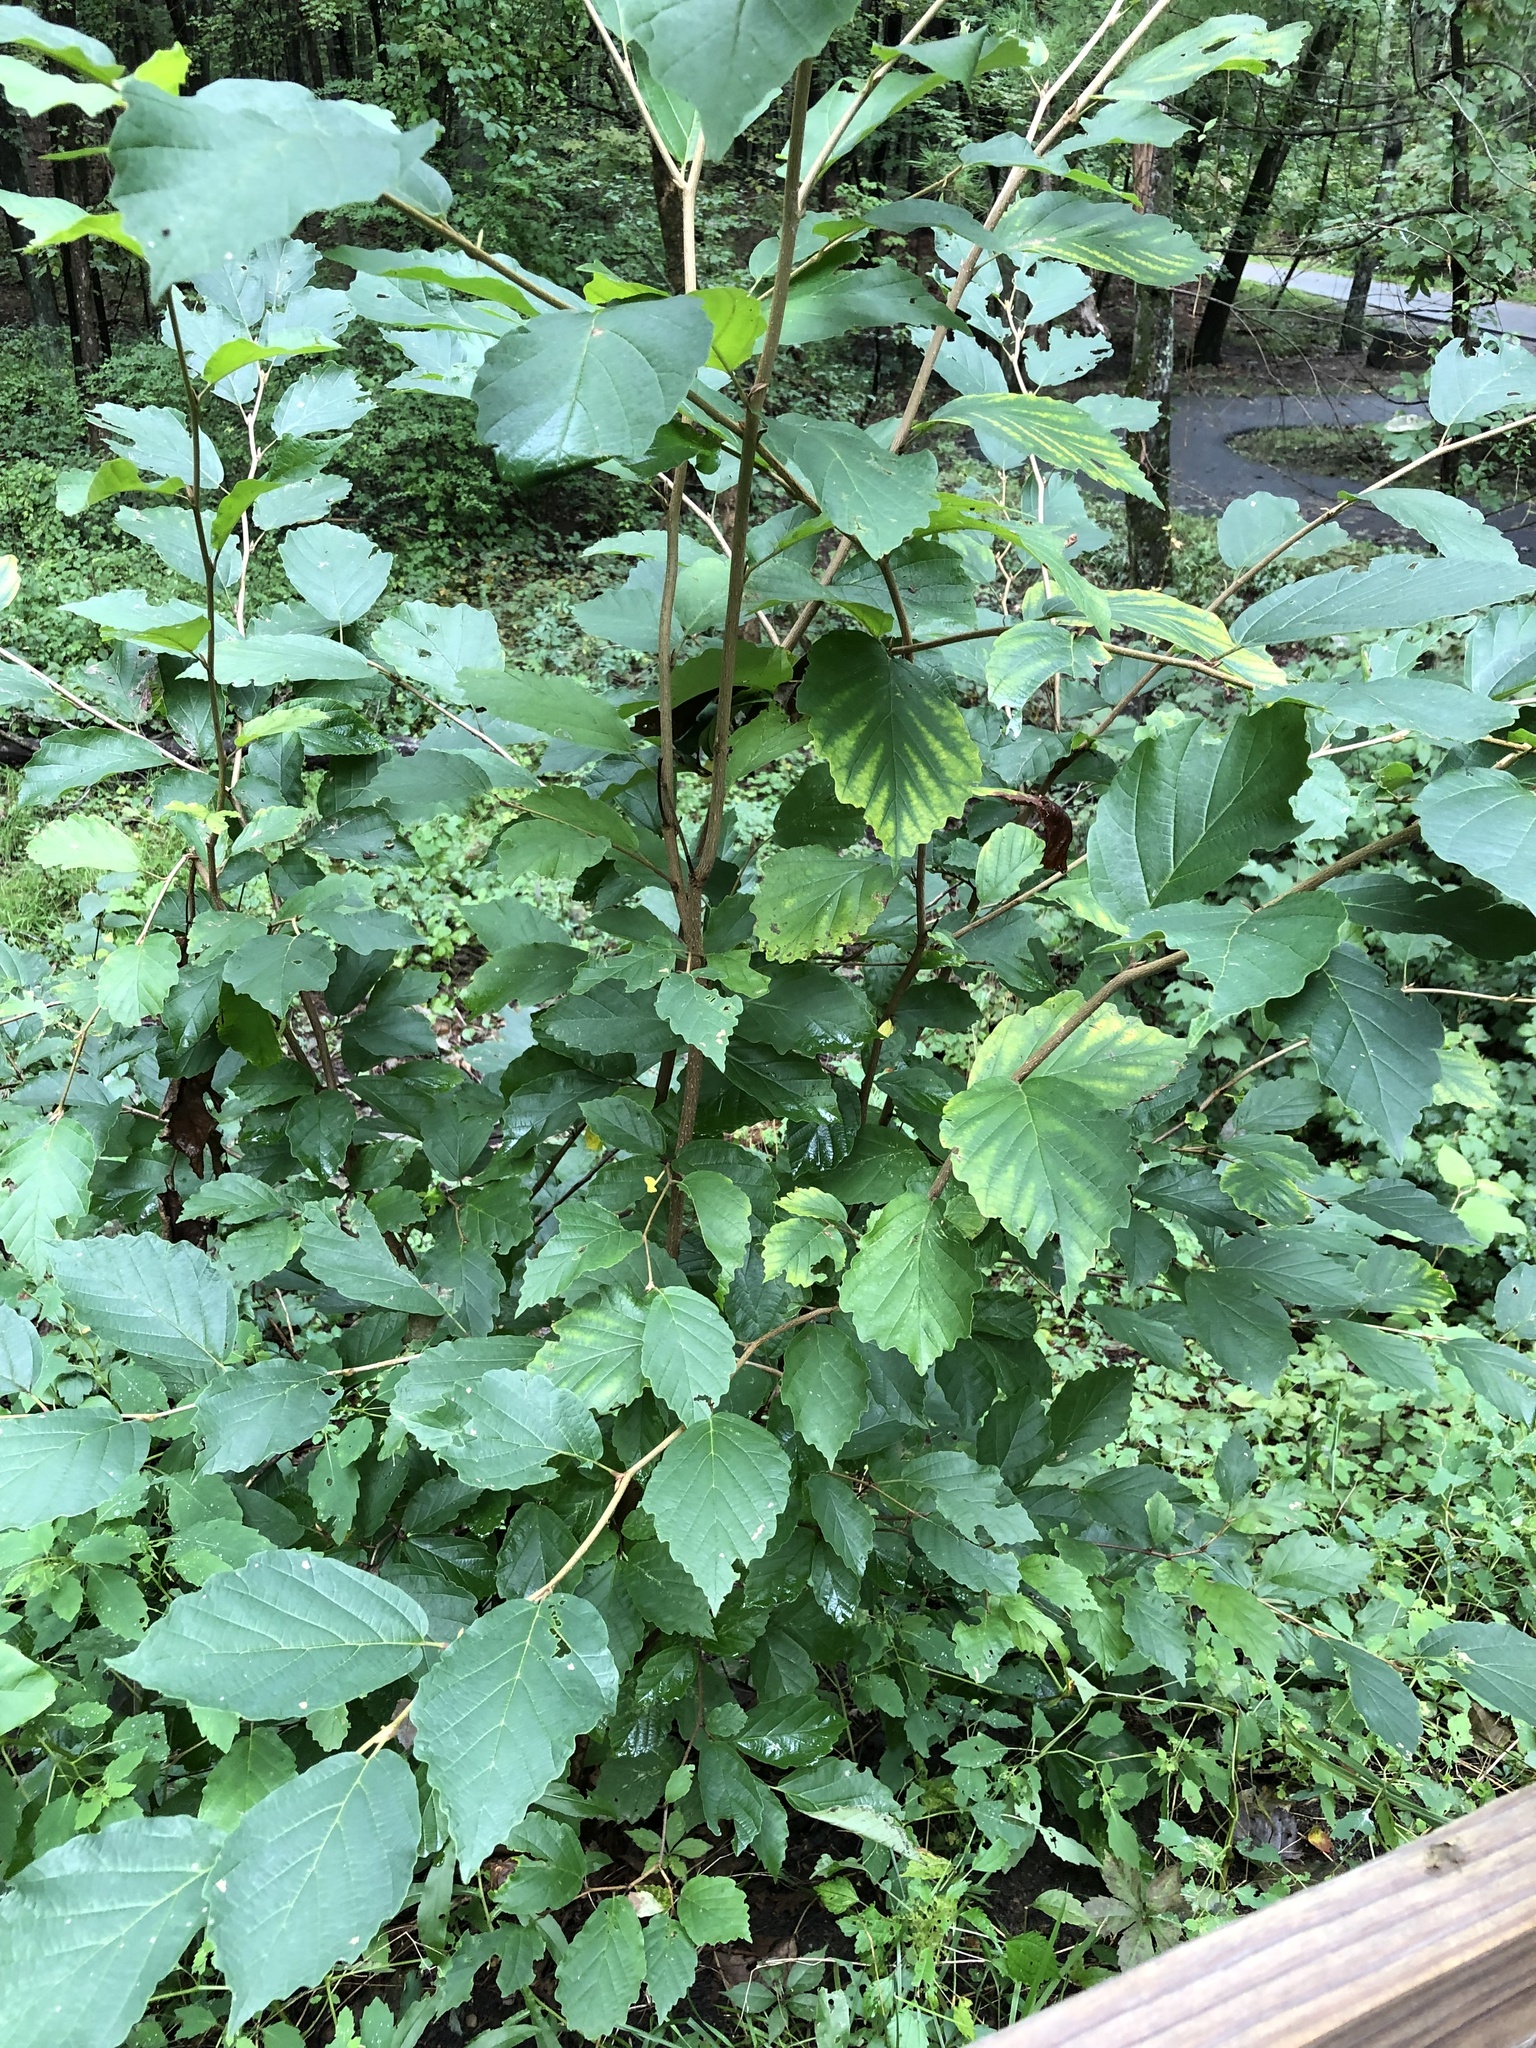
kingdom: Plantae
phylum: Tracheophyta
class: Magnoliopsida
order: Saxifragales
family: Hamamelidaceae
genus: Hamamelis
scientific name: Hamamelis virginiana
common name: Witch-hazel
